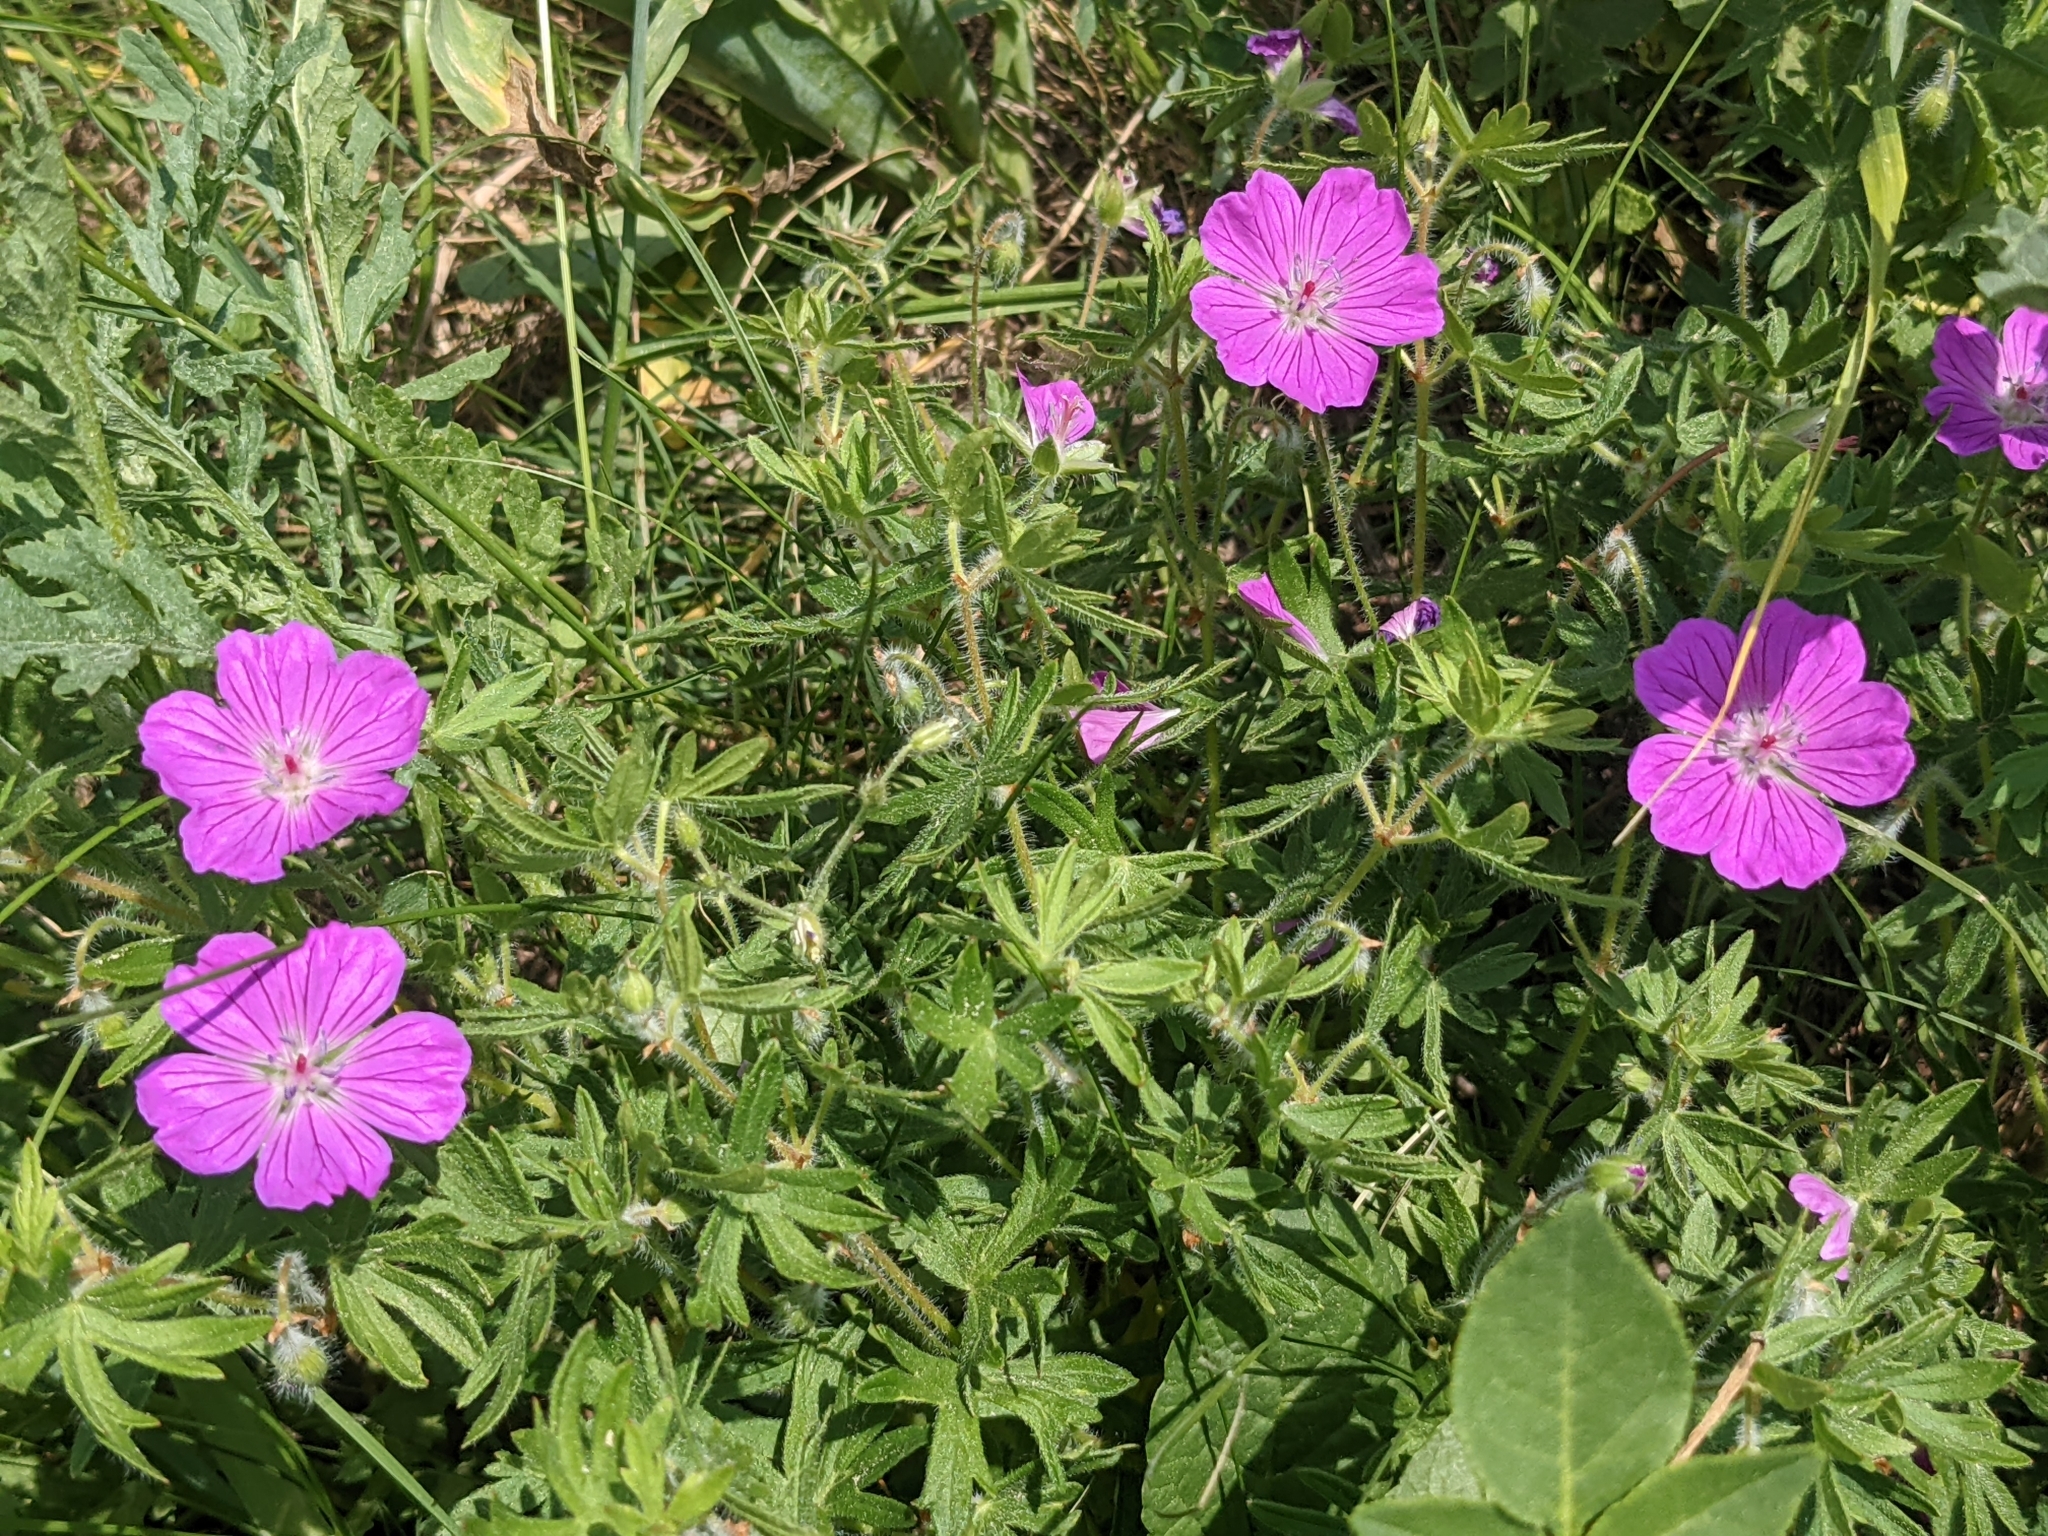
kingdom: Plantae
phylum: Tracheophyta
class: Magnoliopsida
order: Geraniales
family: Geraniaceae
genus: Geranium
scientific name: Geranium sanguineum
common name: Bloody crane's-bill
